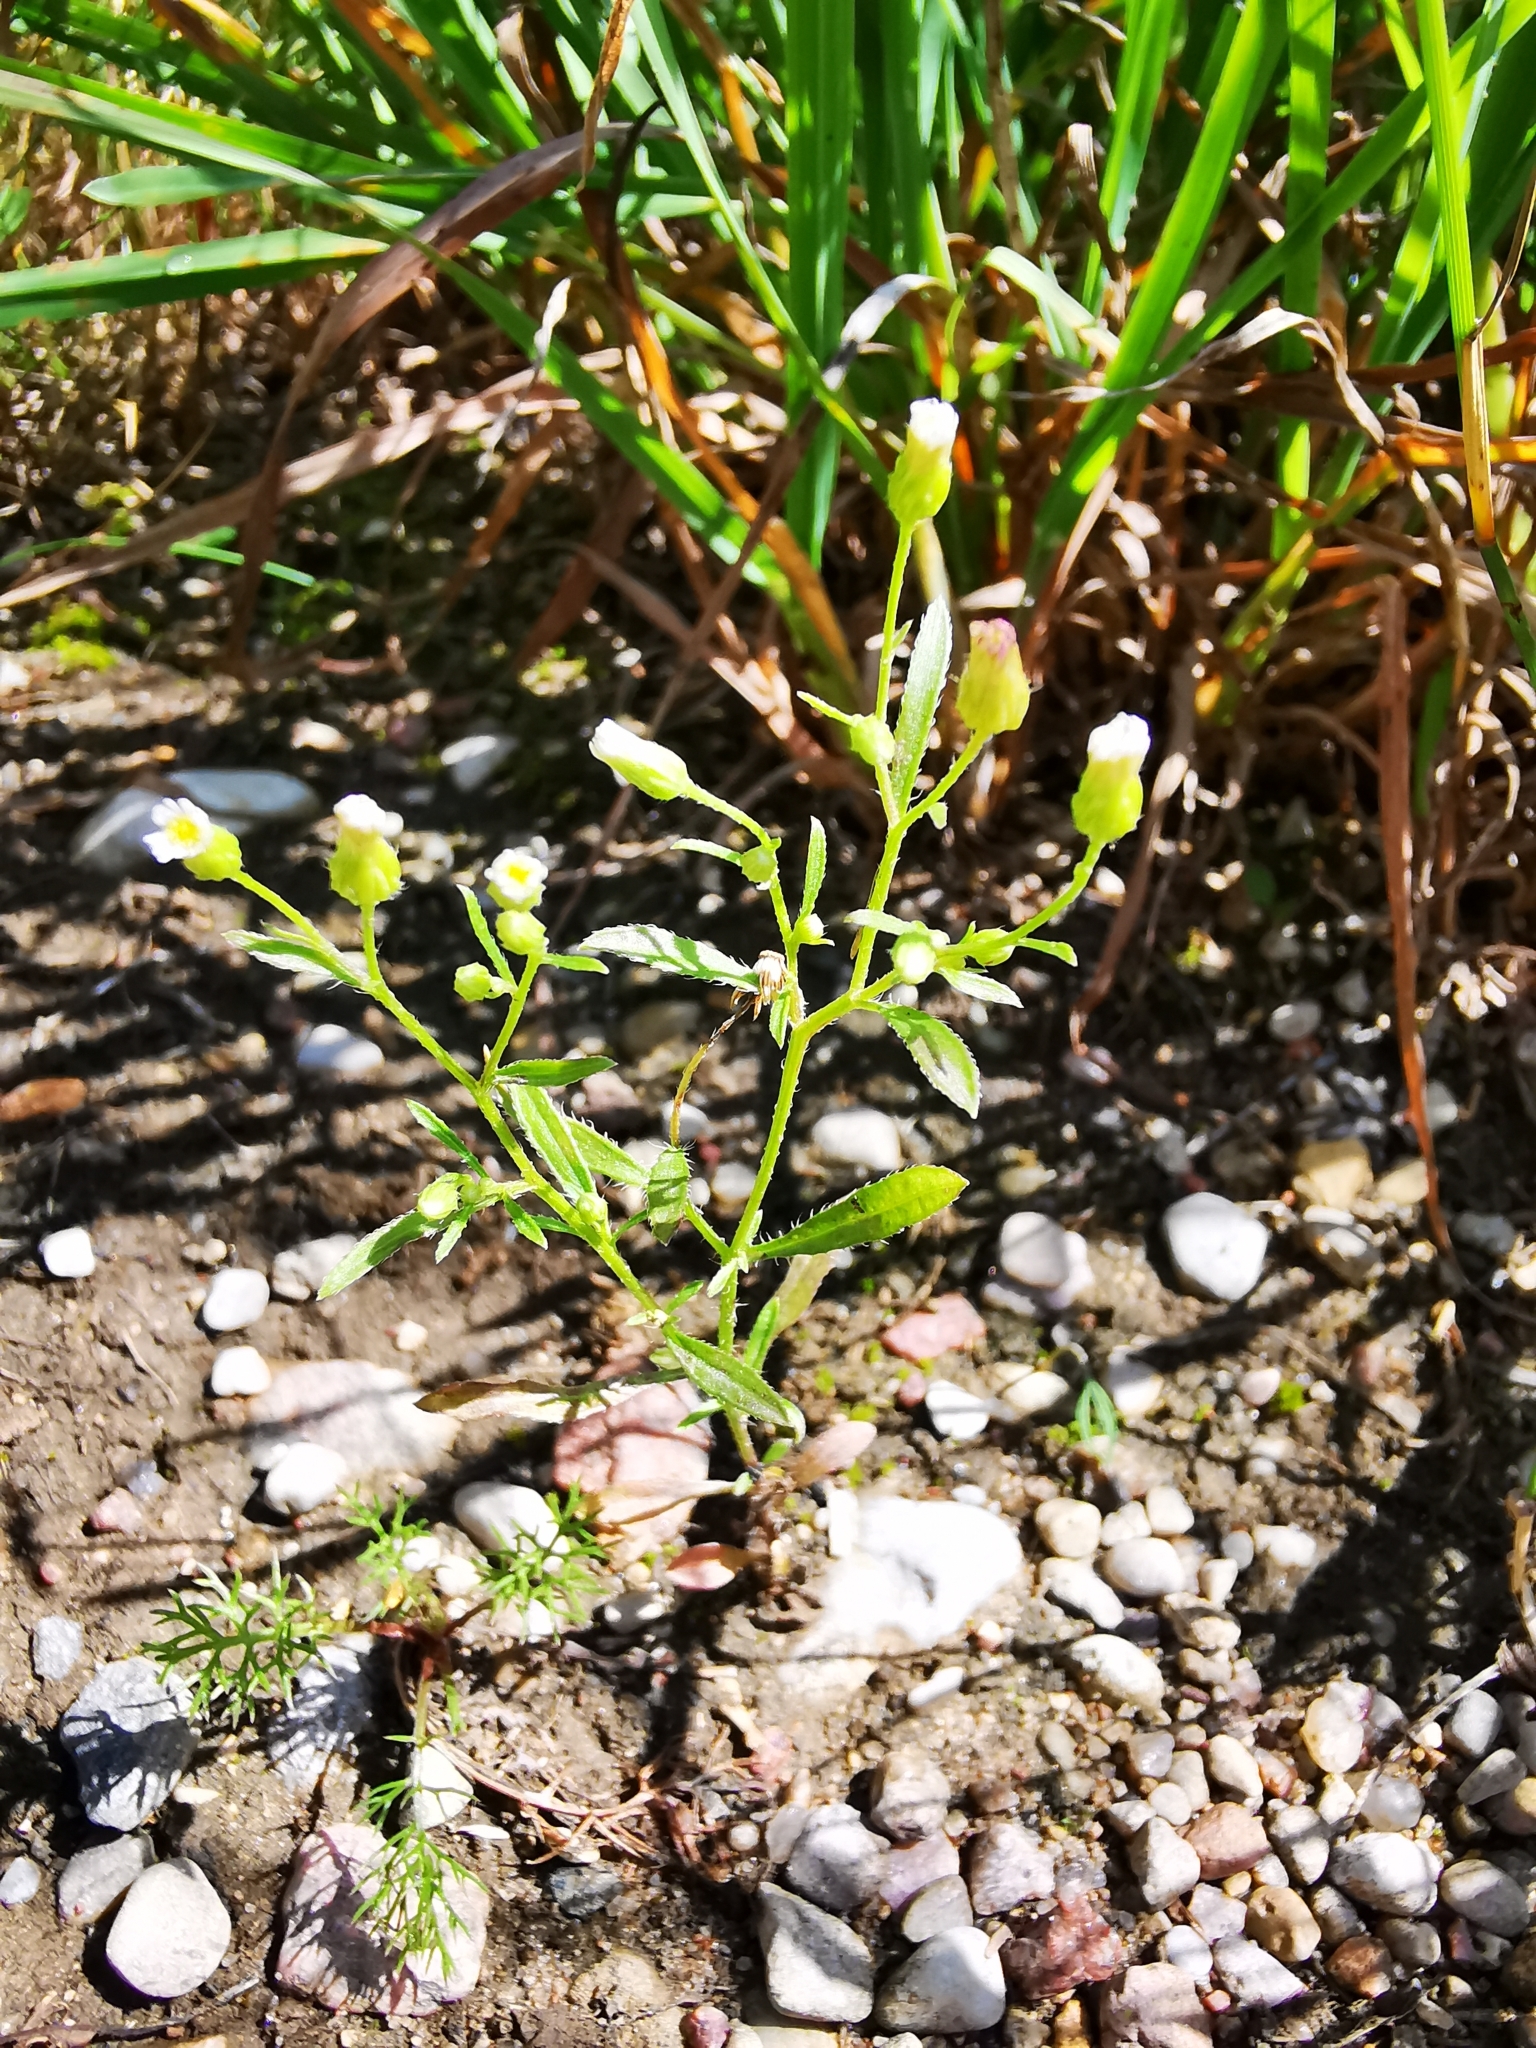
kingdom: Plantae
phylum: Tracheophyta
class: Magnoliopsida
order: Asterales
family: Asteraceae
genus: Erigeron
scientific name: Erigeron canadensis
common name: Canadian fleabane
